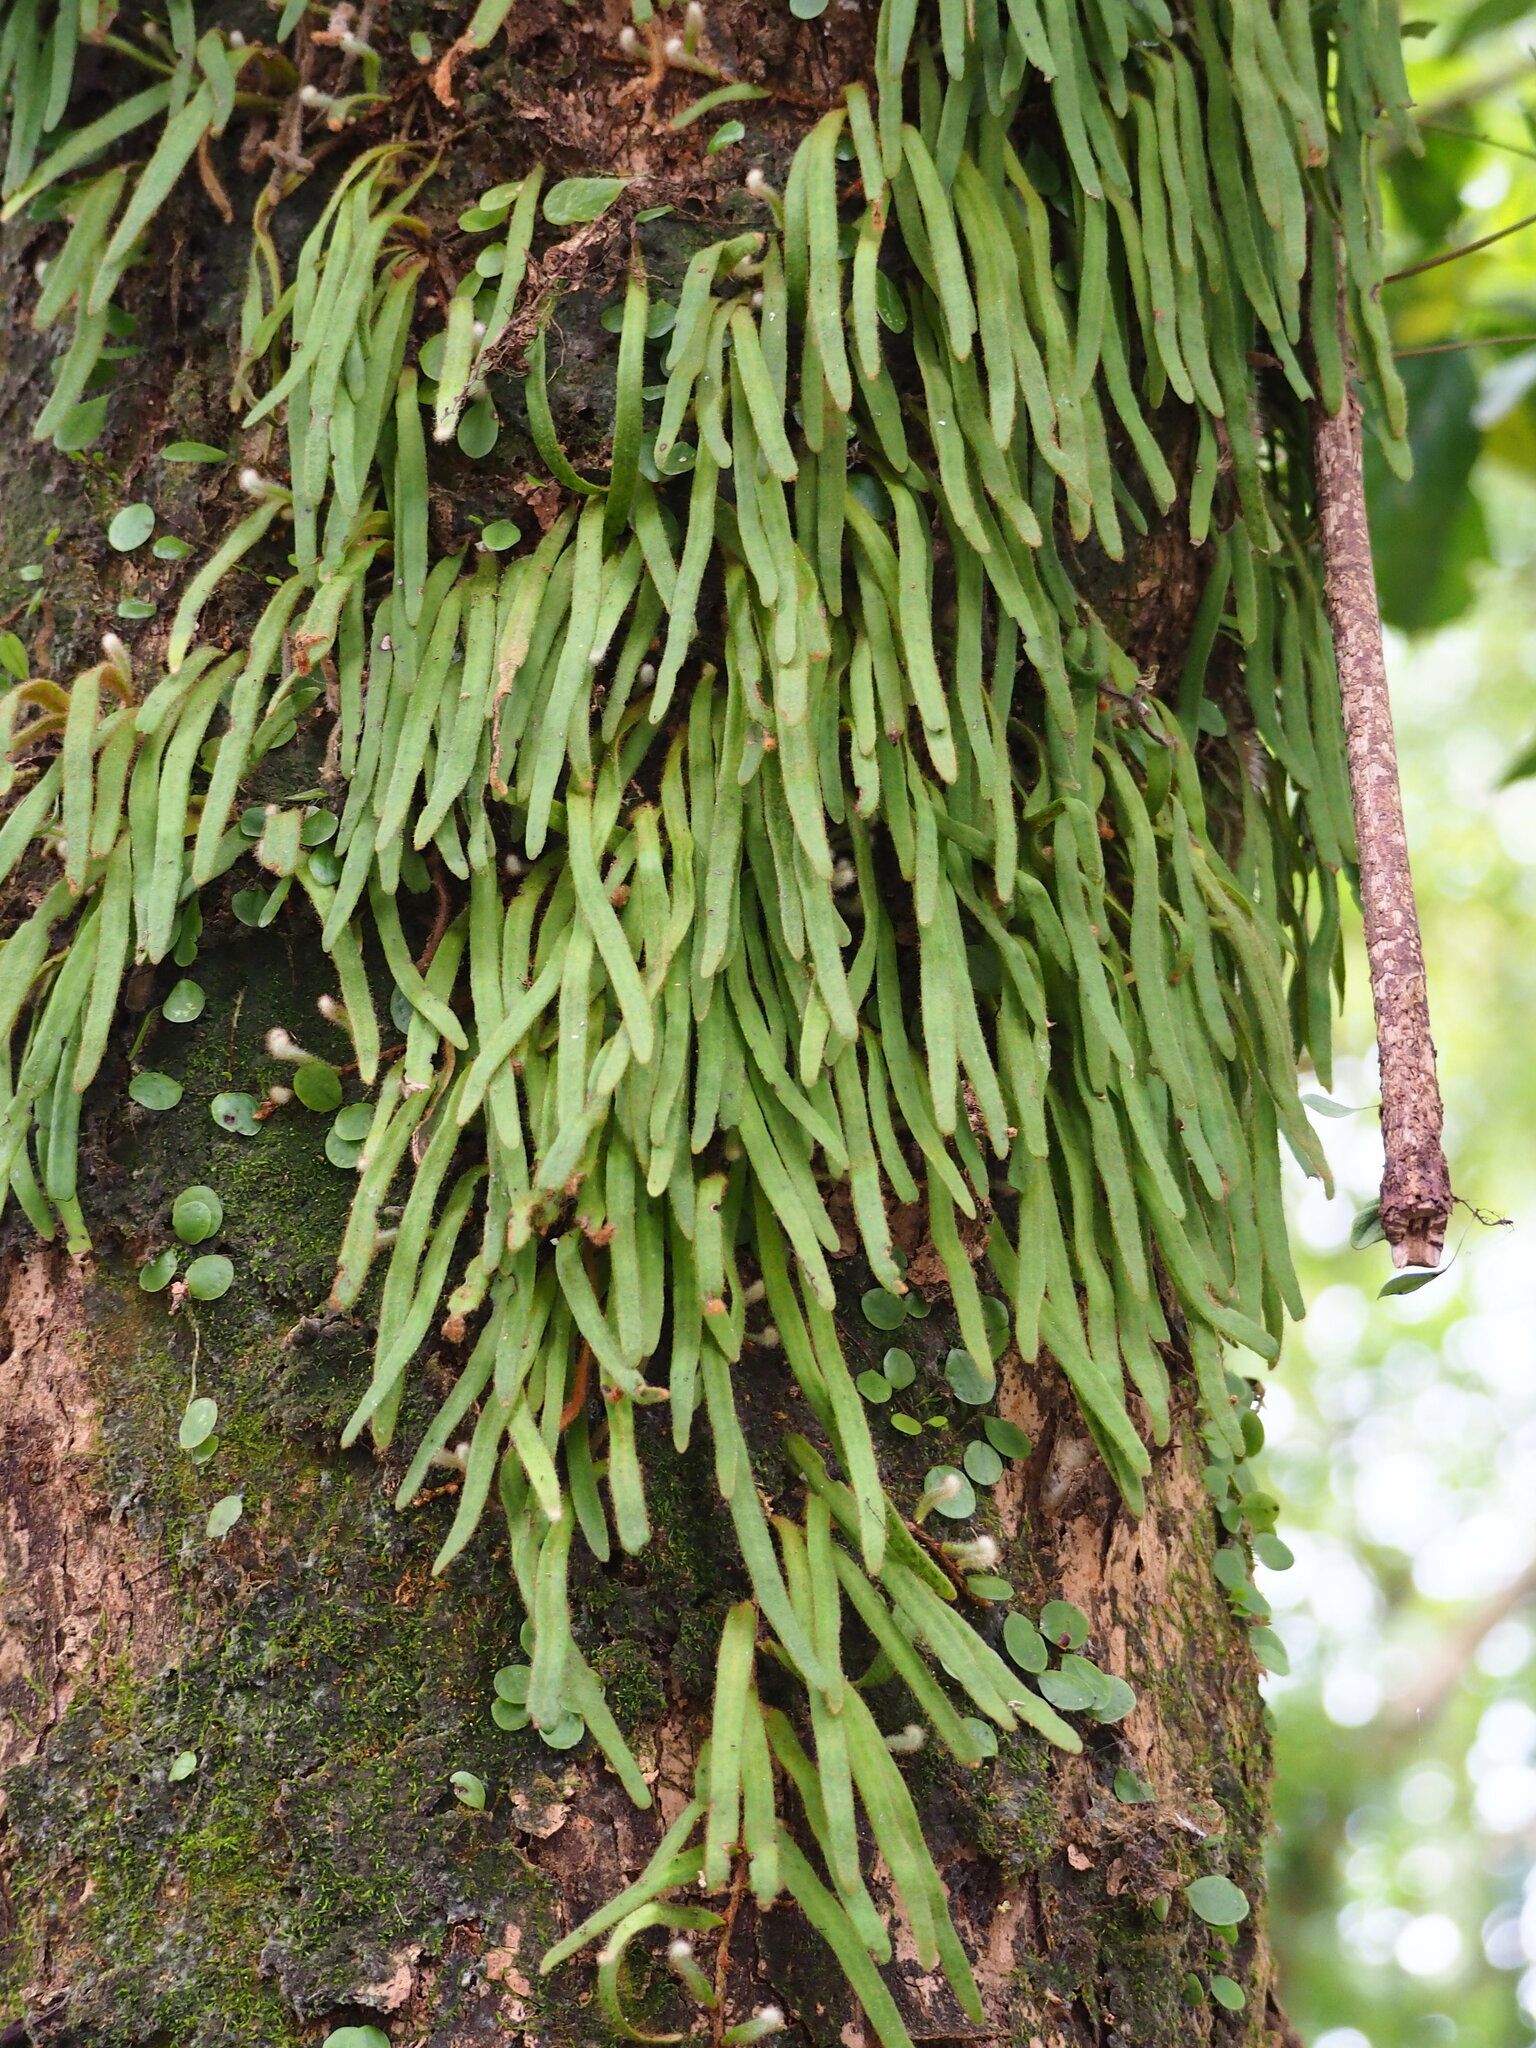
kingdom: Plantae
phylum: Tracheophyta
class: Polypodiopsida
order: Polypodiales
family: Polypodiaceae
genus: Pyrrosia
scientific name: Pyrrosia linearifolia
